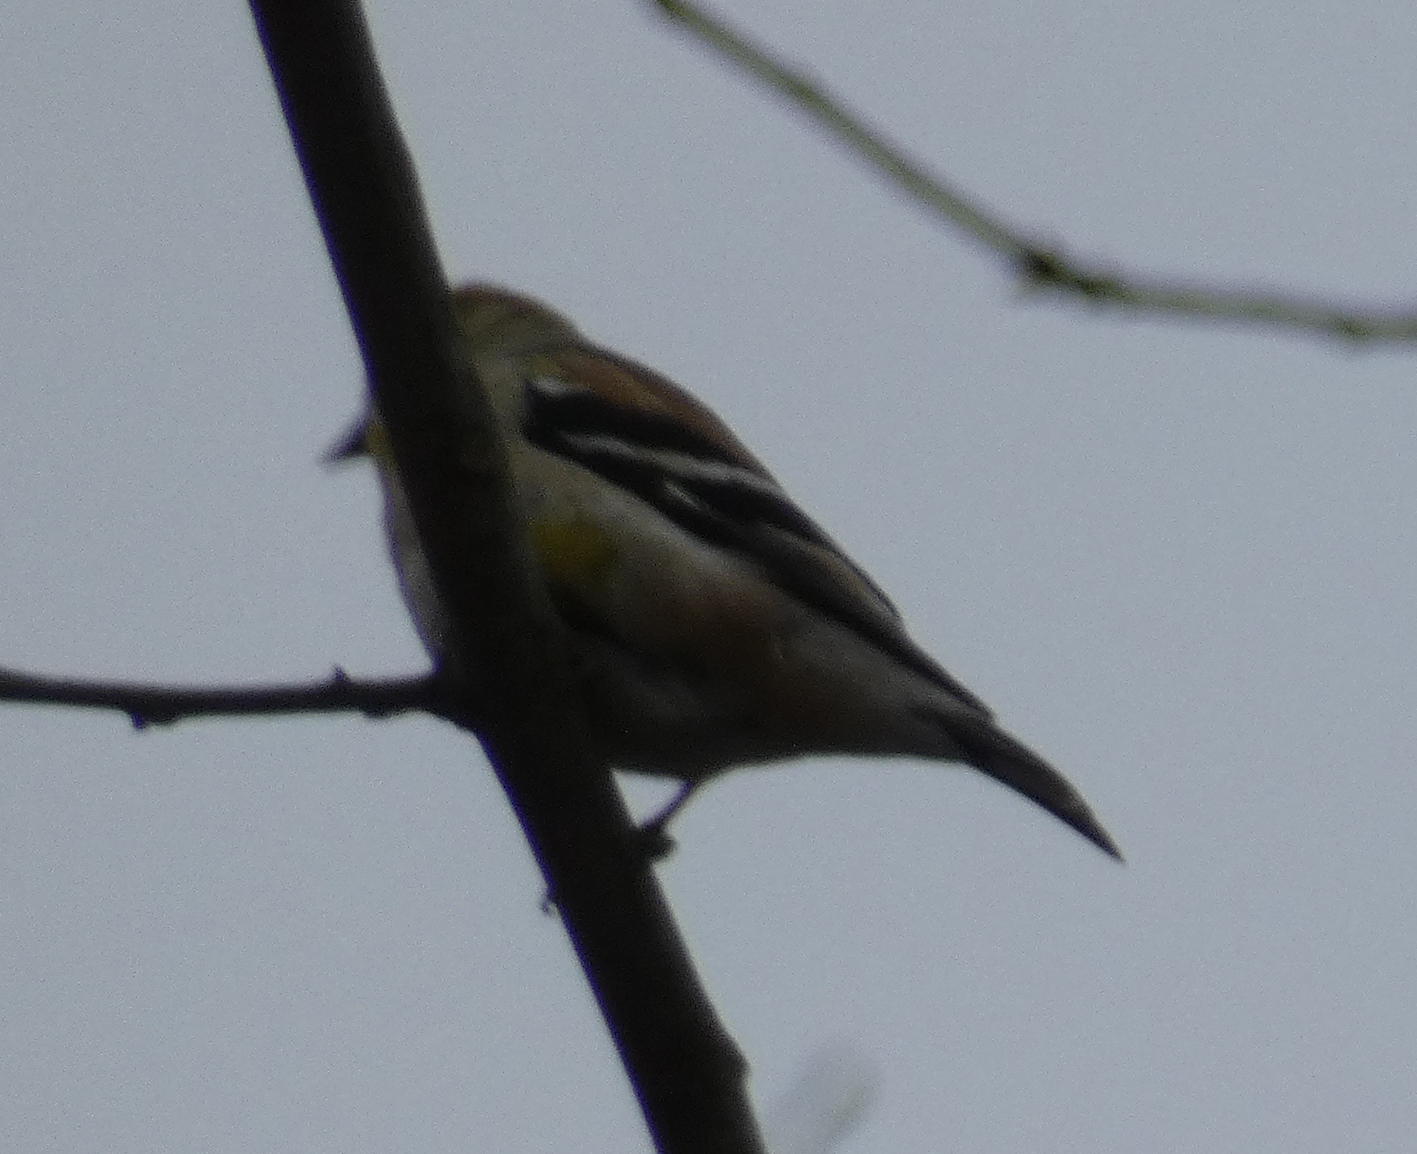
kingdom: Animalia
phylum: Chordata
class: Aves
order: Passeriformes
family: Fringillidae
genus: Spinus
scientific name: Spinus tristis
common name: American goldfinch
